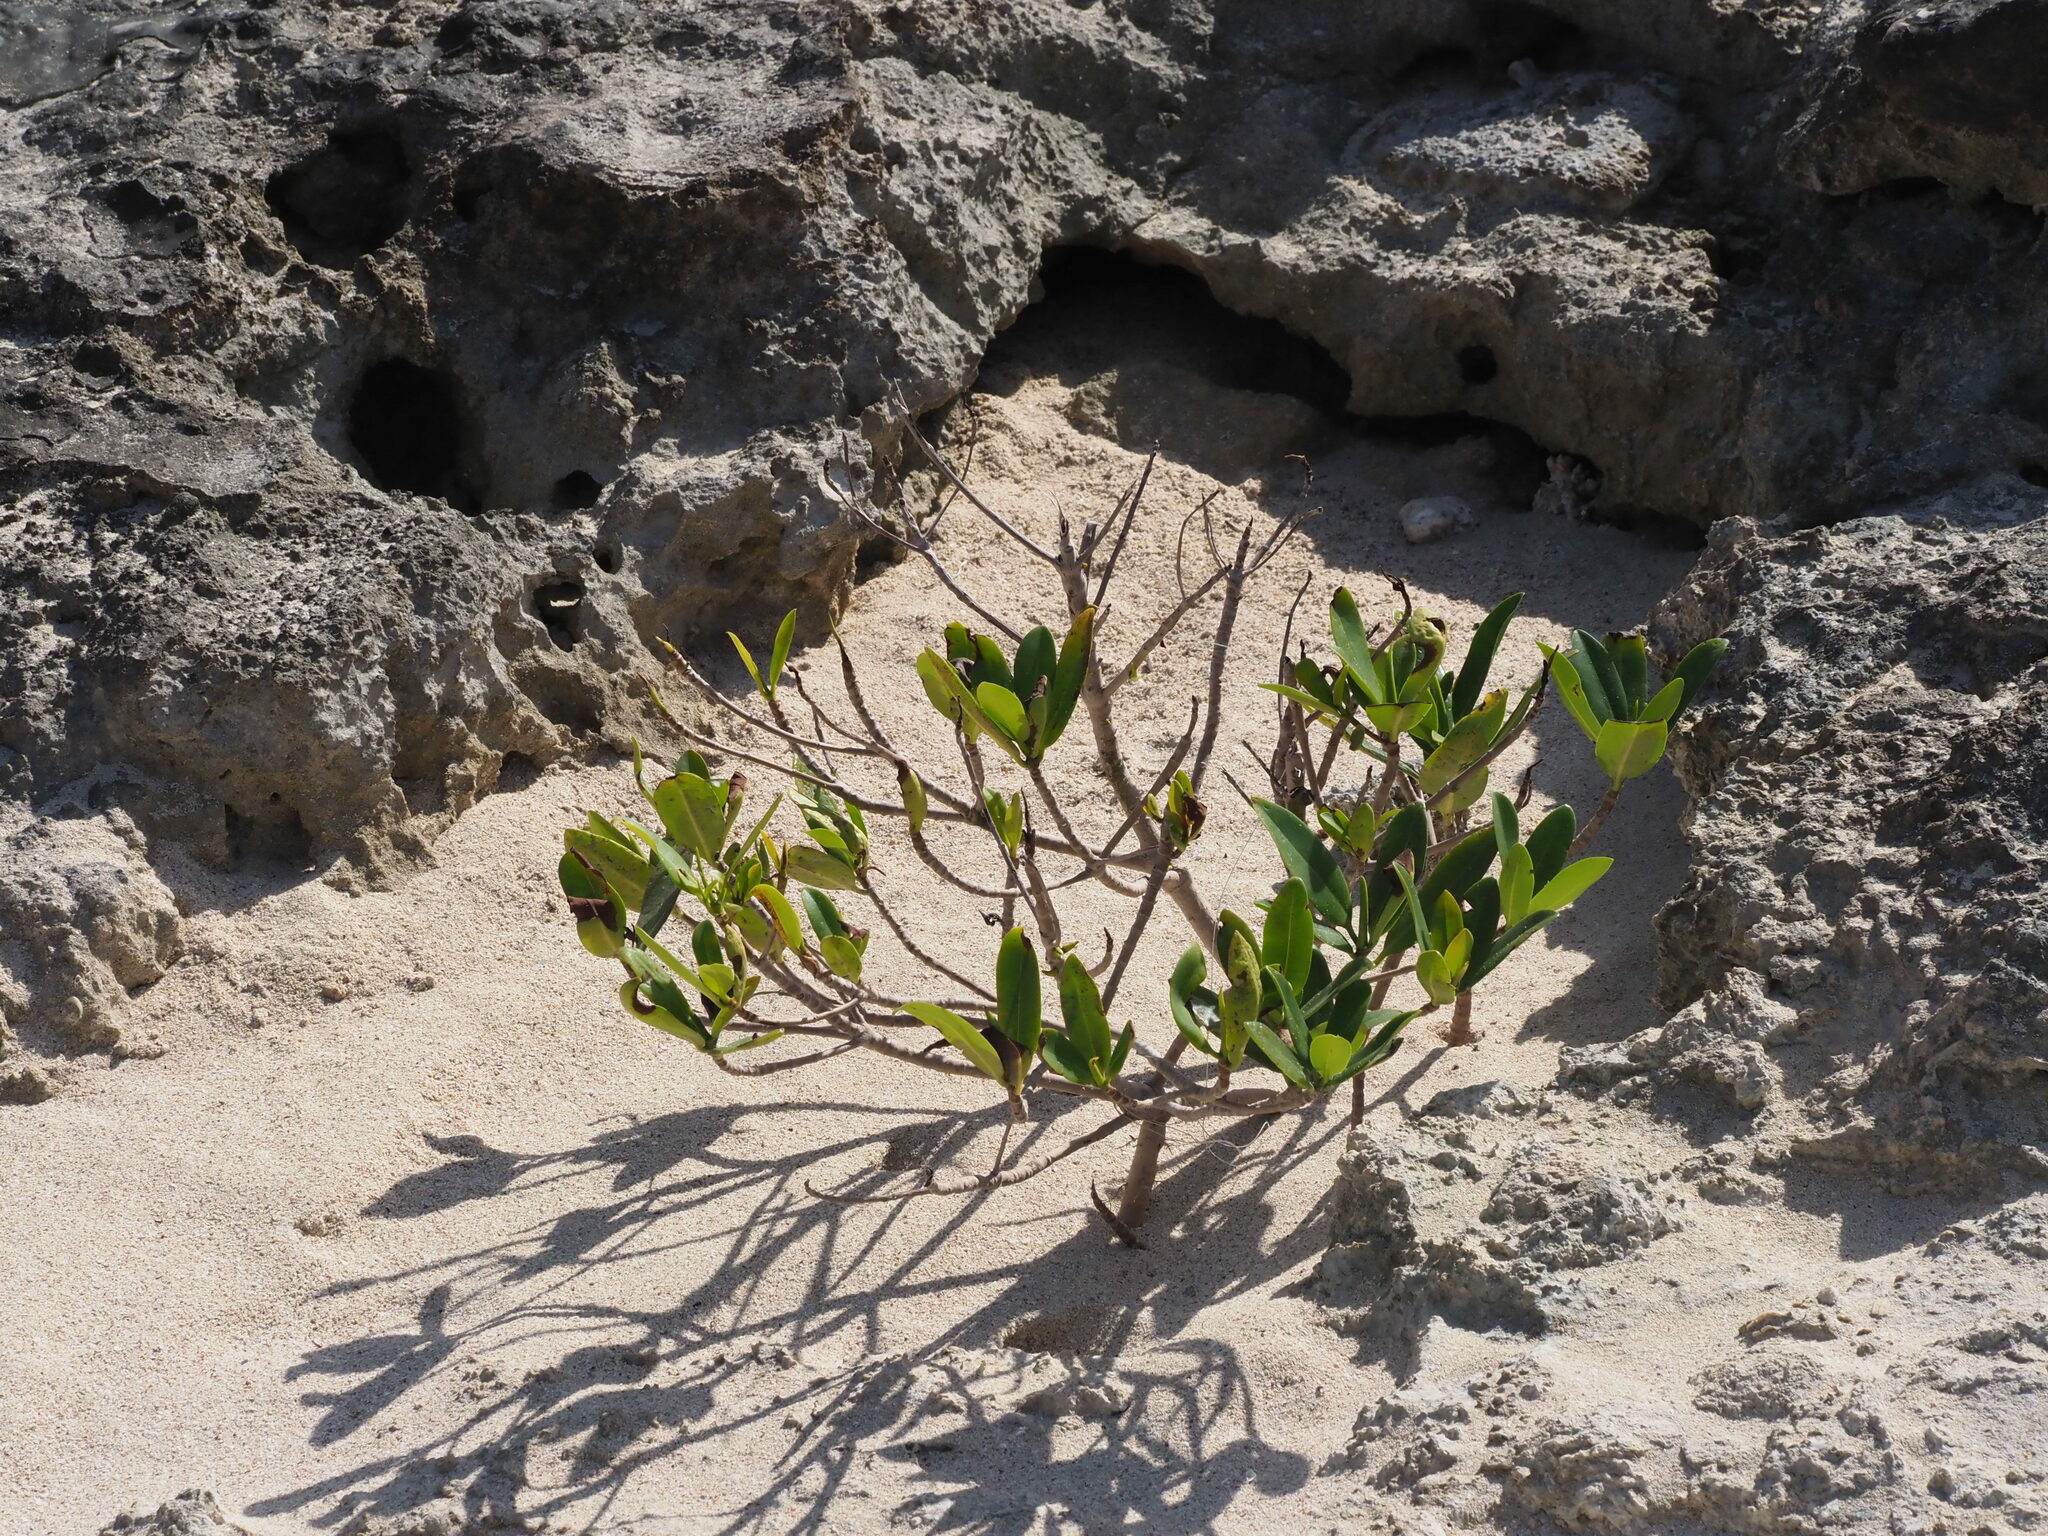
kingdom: Plantae
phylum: Tracheophyta
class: Magnoliopsida
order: Malpighiales
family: Rhizophoraceae
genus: Rhizophora
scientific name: Rhizophora mangle
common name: Red mangrove
